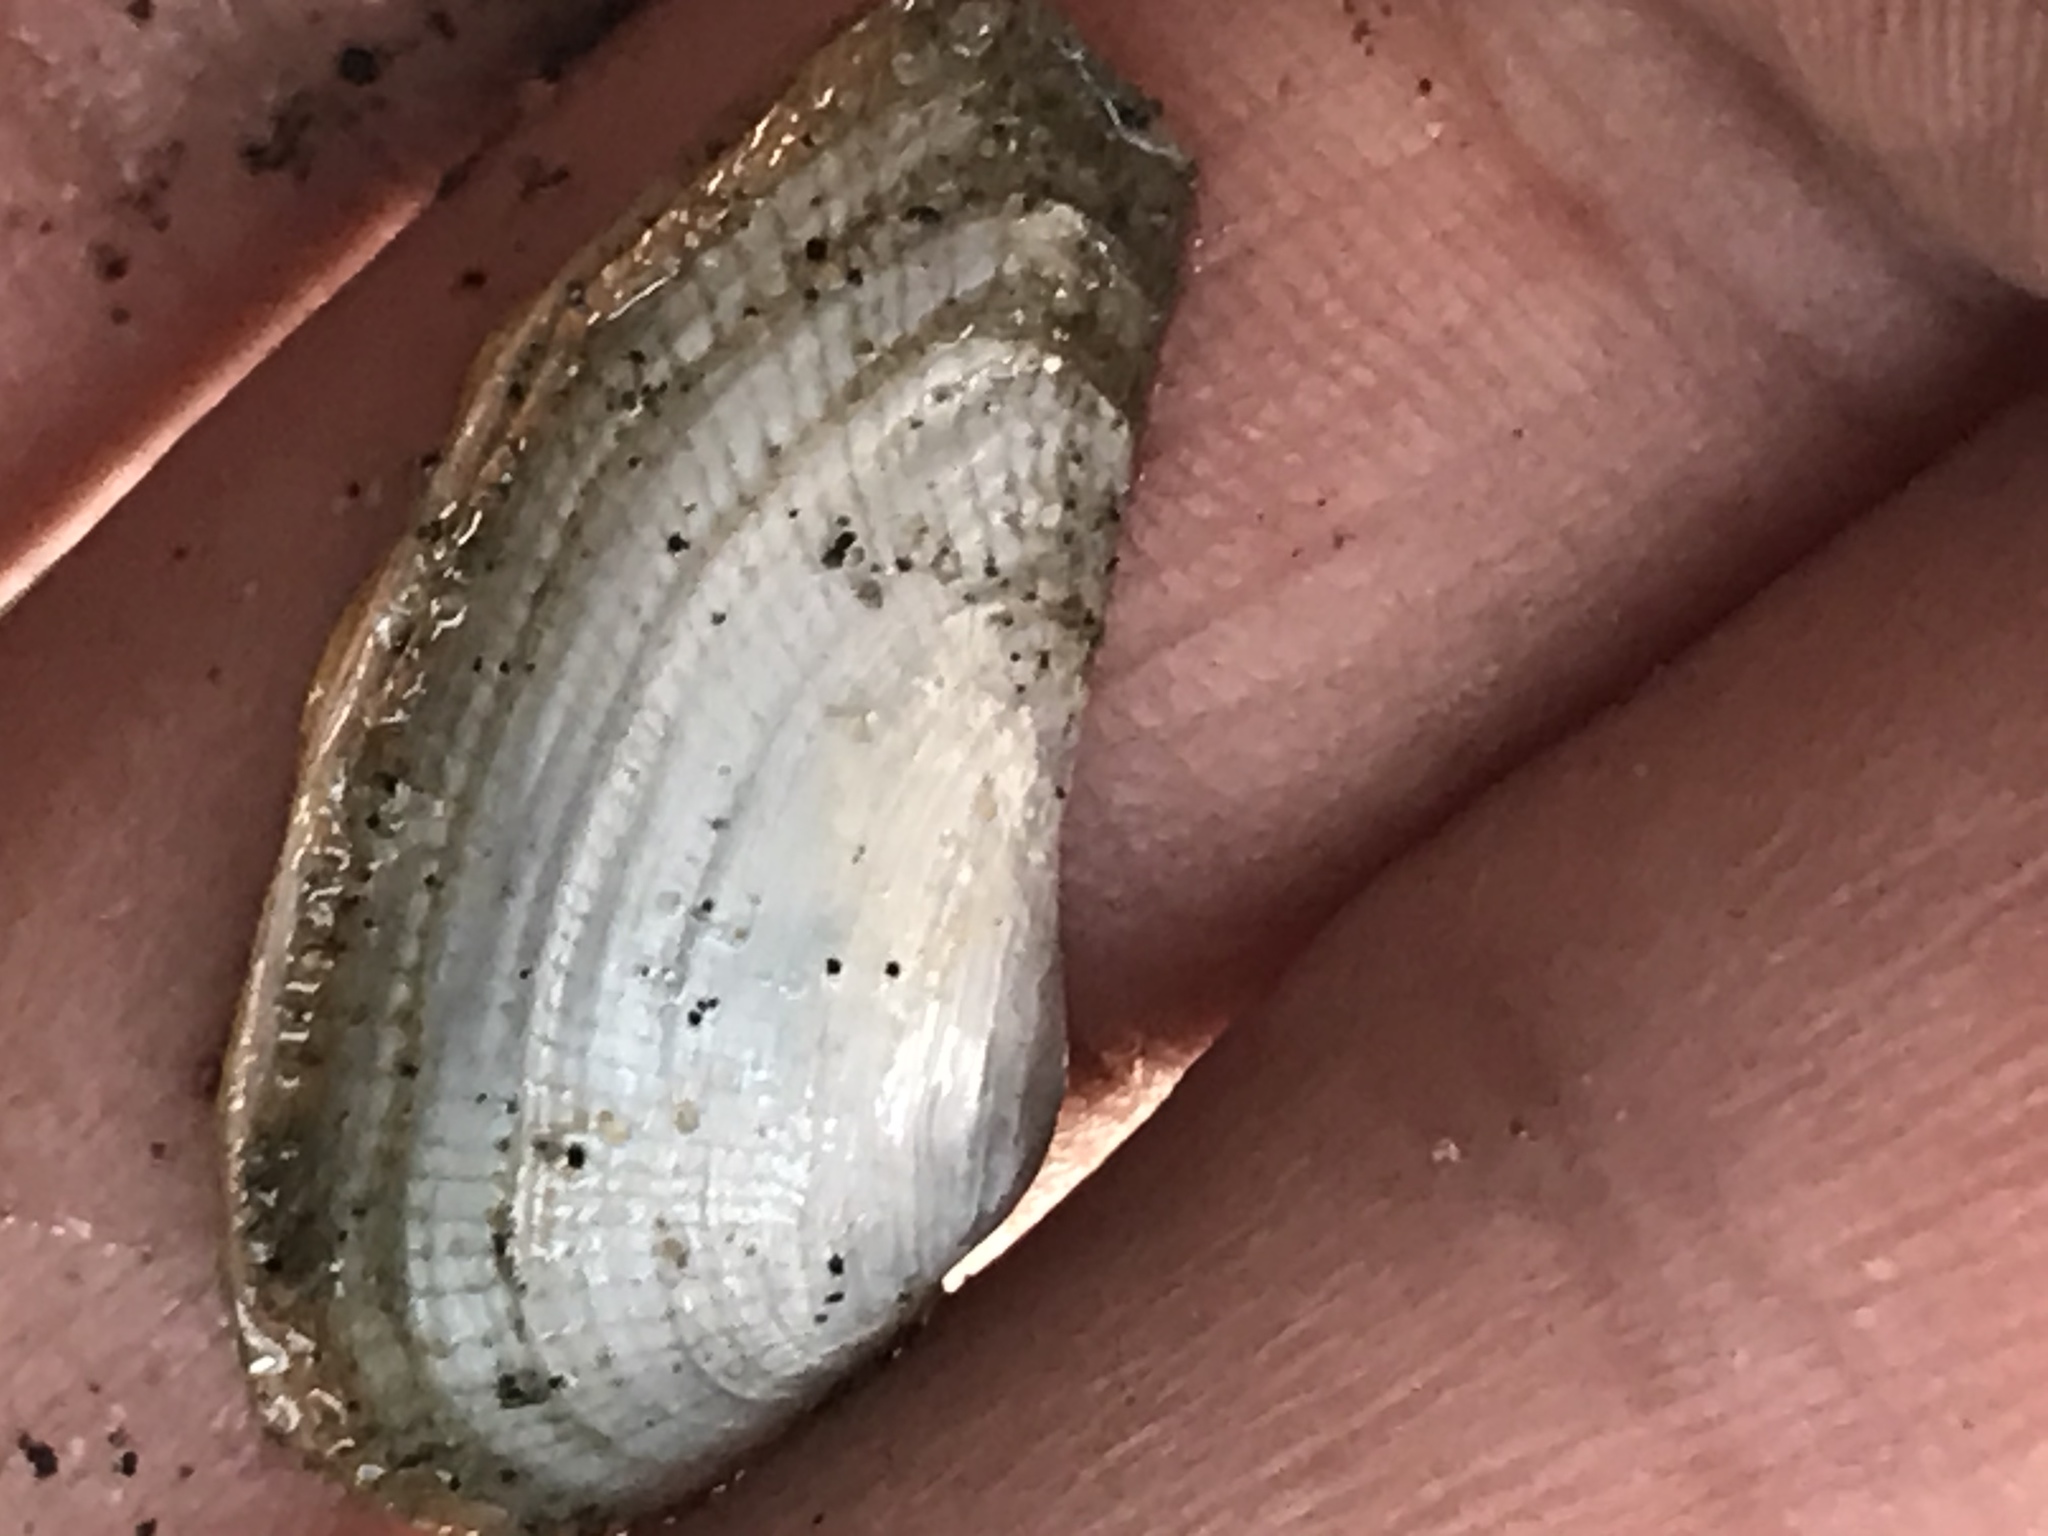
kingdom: Animalia
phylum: Mollusca
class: Bivalvia
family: Lyonsiidae
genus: Lyonsia
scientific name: Lyonsia californica
